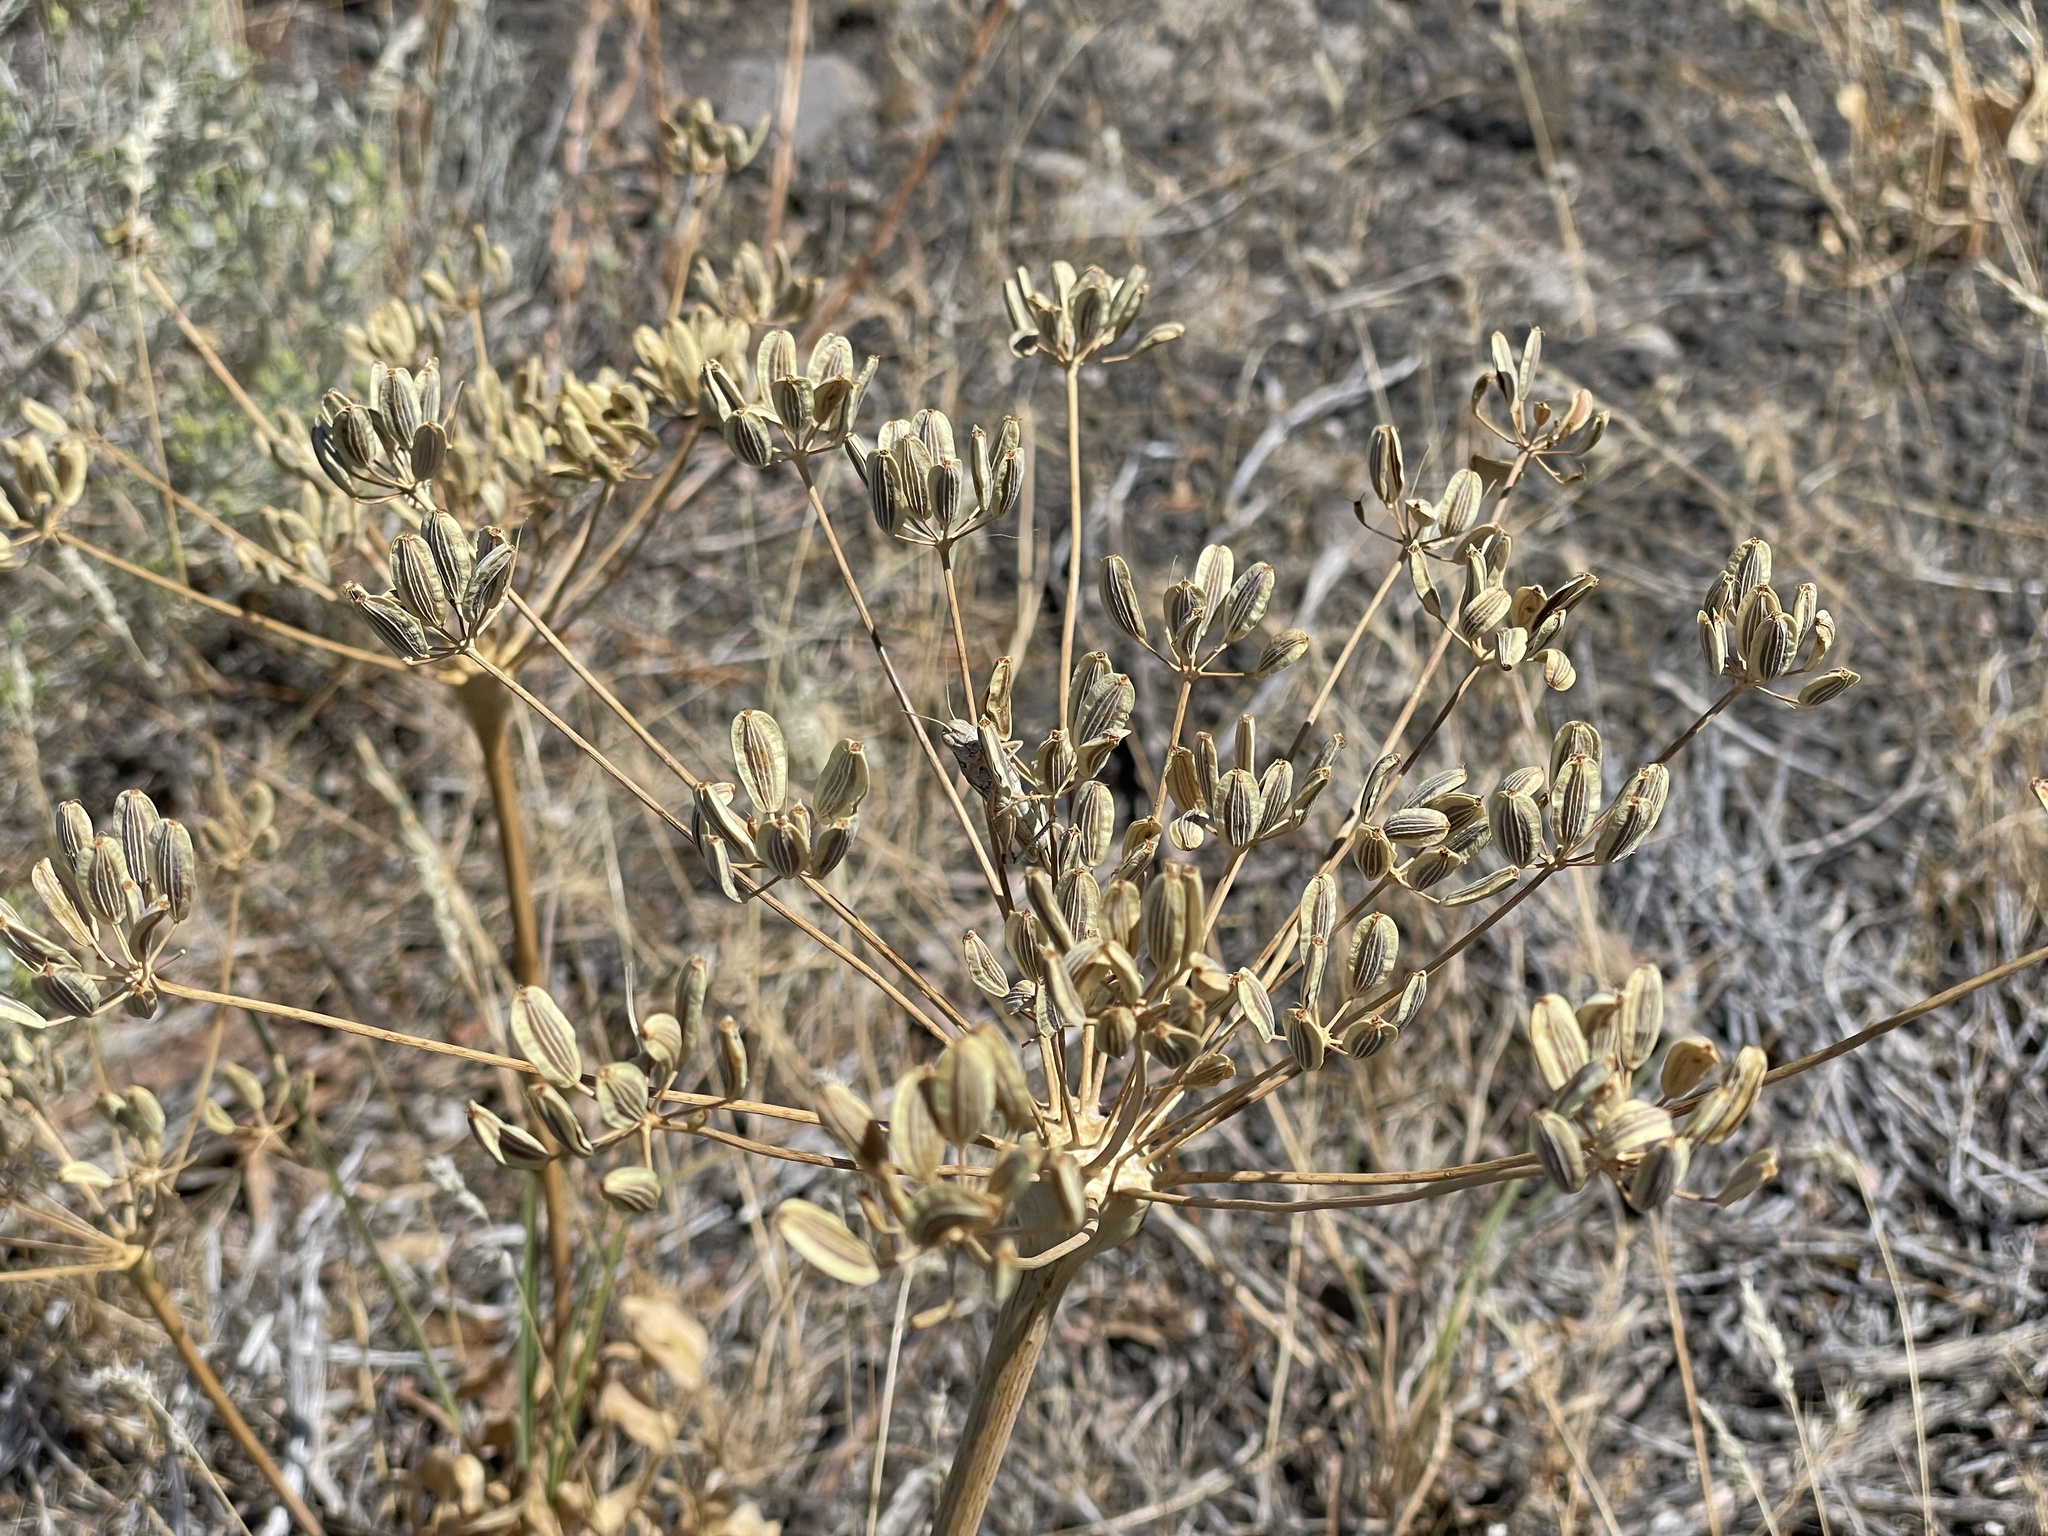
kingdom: Plantae
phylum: Tracheophyta
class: Magnoliopsida
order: Apiales
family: Apiaceae
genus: Lomatium
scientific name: Lomatium nudicaule
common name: Pestle lomatium
